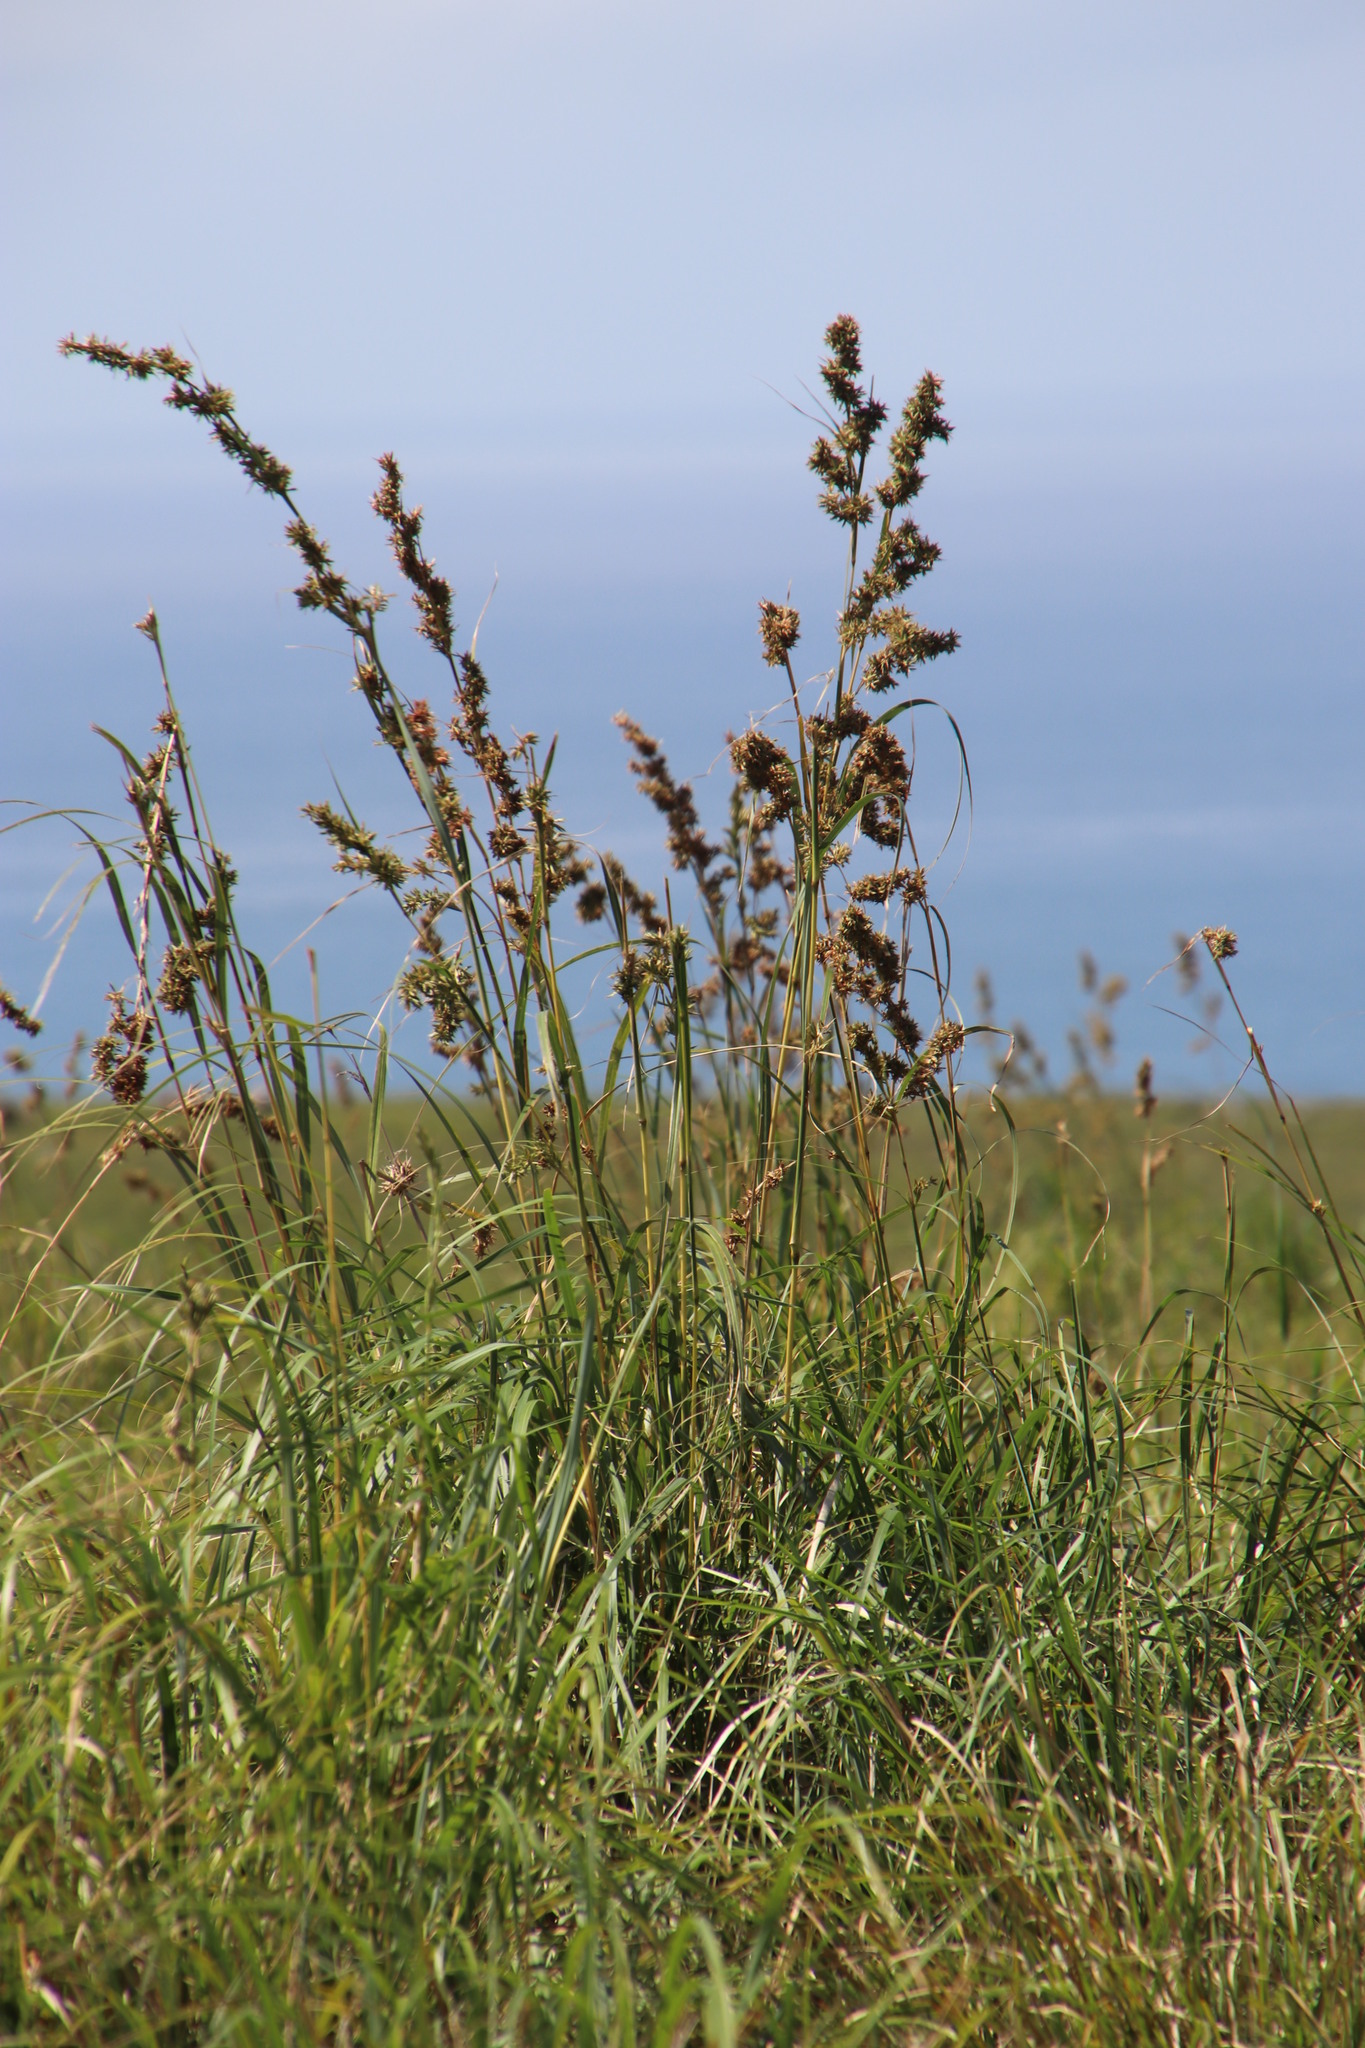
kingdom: Plantae
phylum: Tracheophyta
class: Liliopsida
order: Poales
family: Cyperaceae
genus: Carex
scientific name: Carex steudneri
